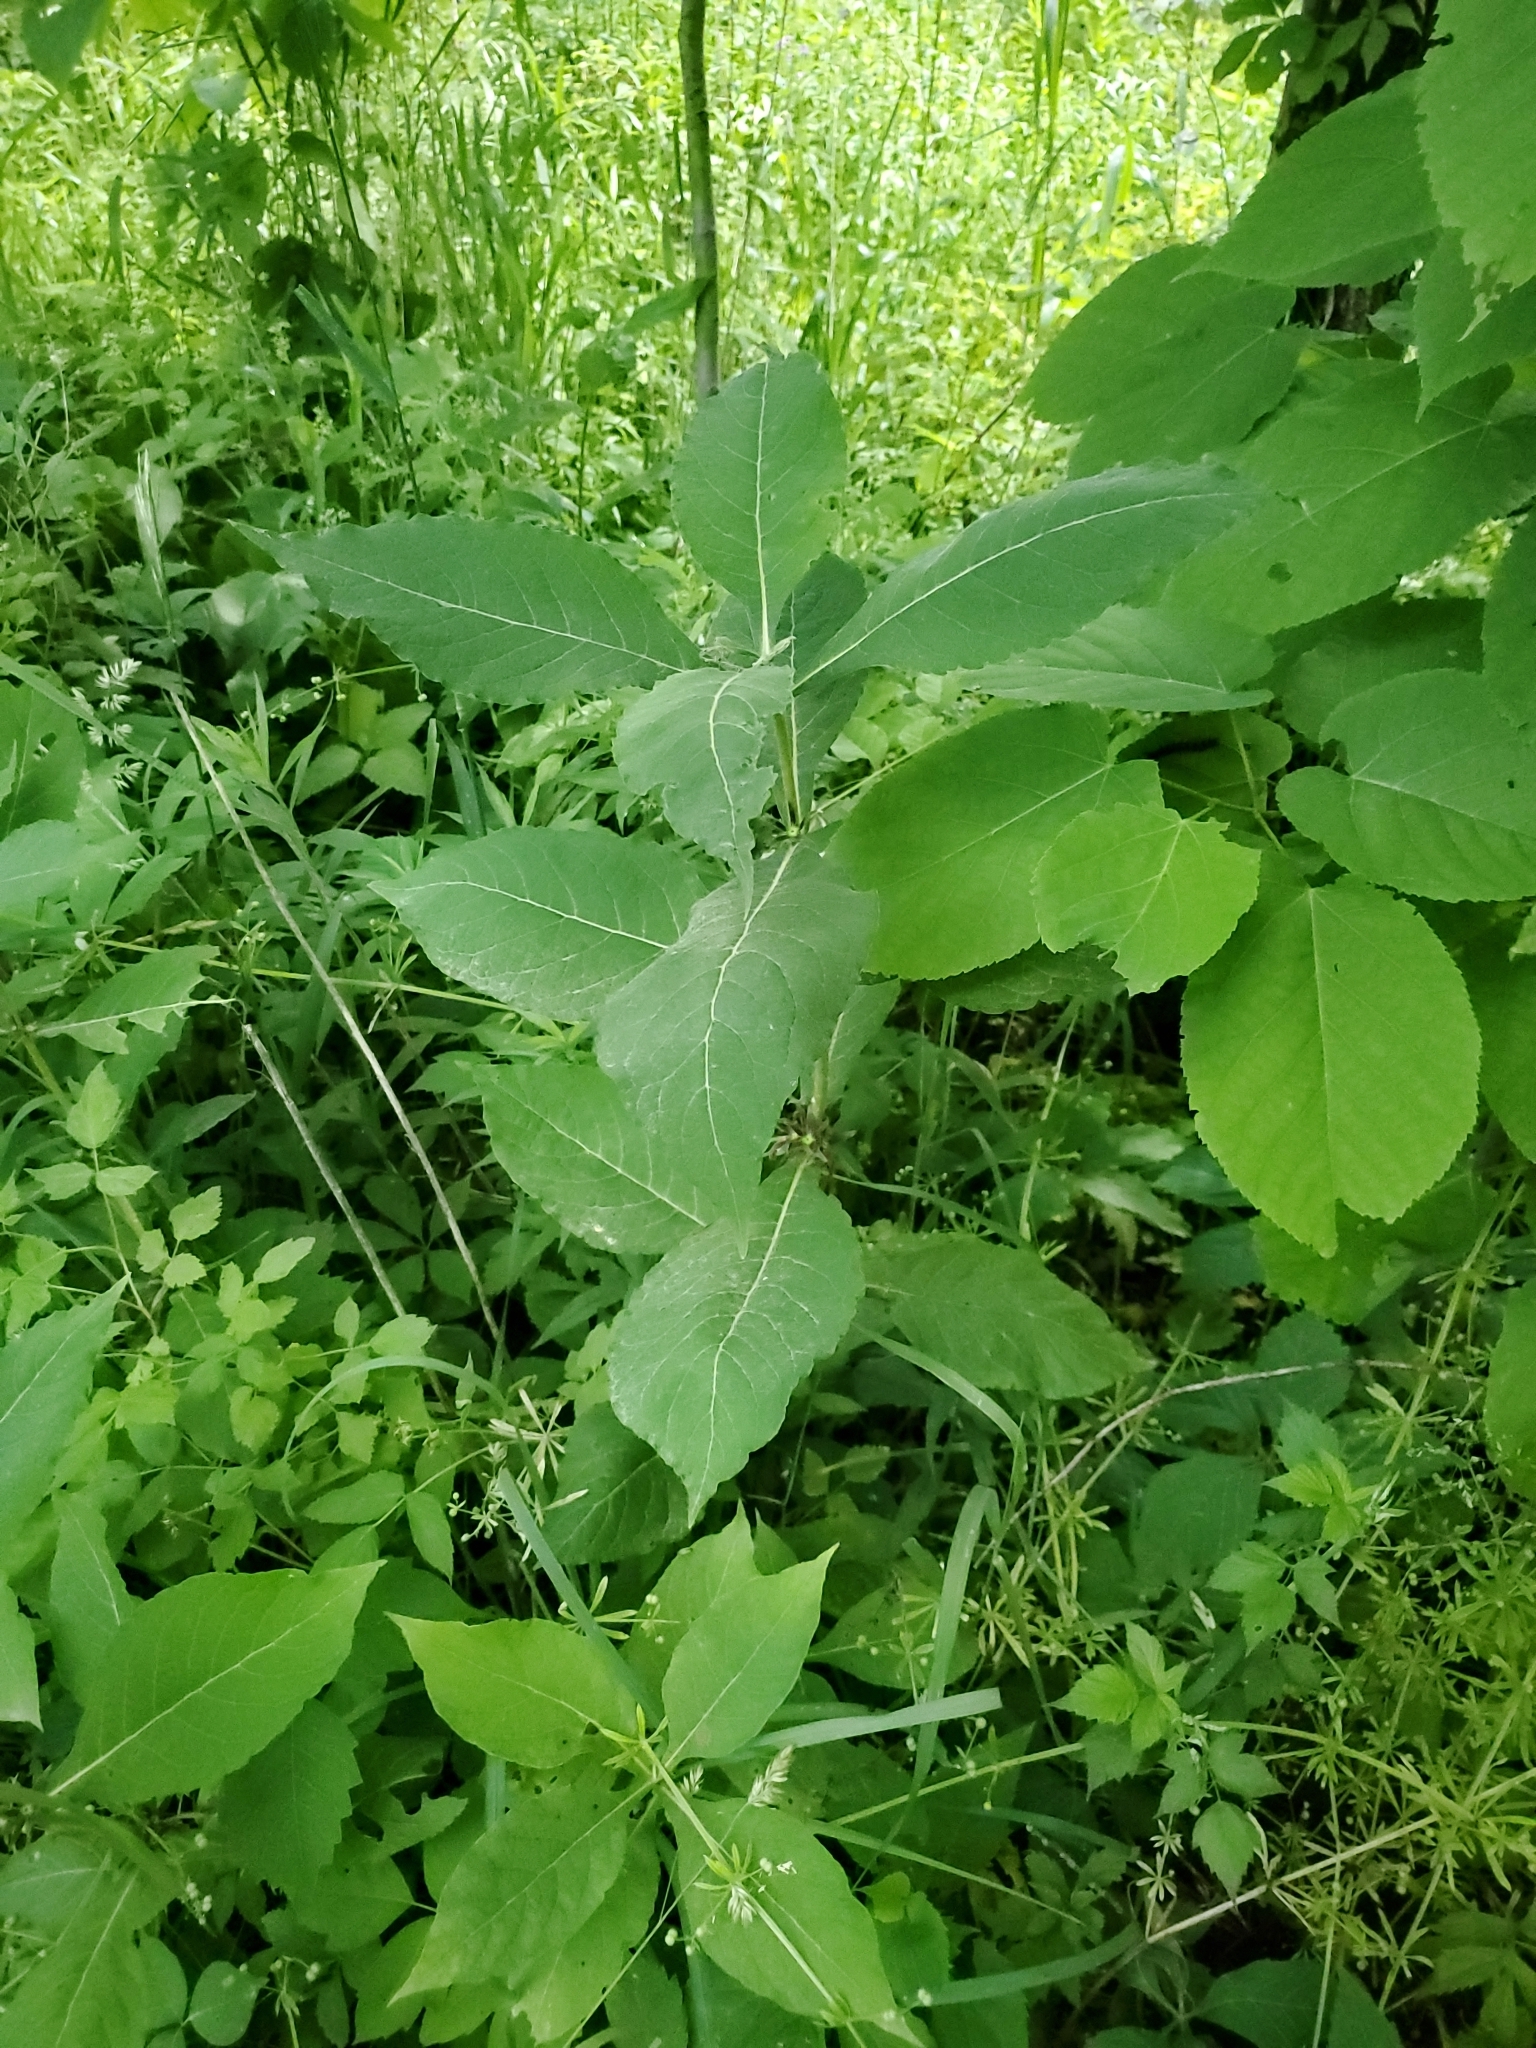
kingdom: Plantae
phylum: Tracheophyta
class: Magnoliopsida
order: Dipsacales
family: Caprifoliaceae
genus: Triosteum
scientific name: Triosteum aurantiacum
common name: Coffee tinker's-weed
